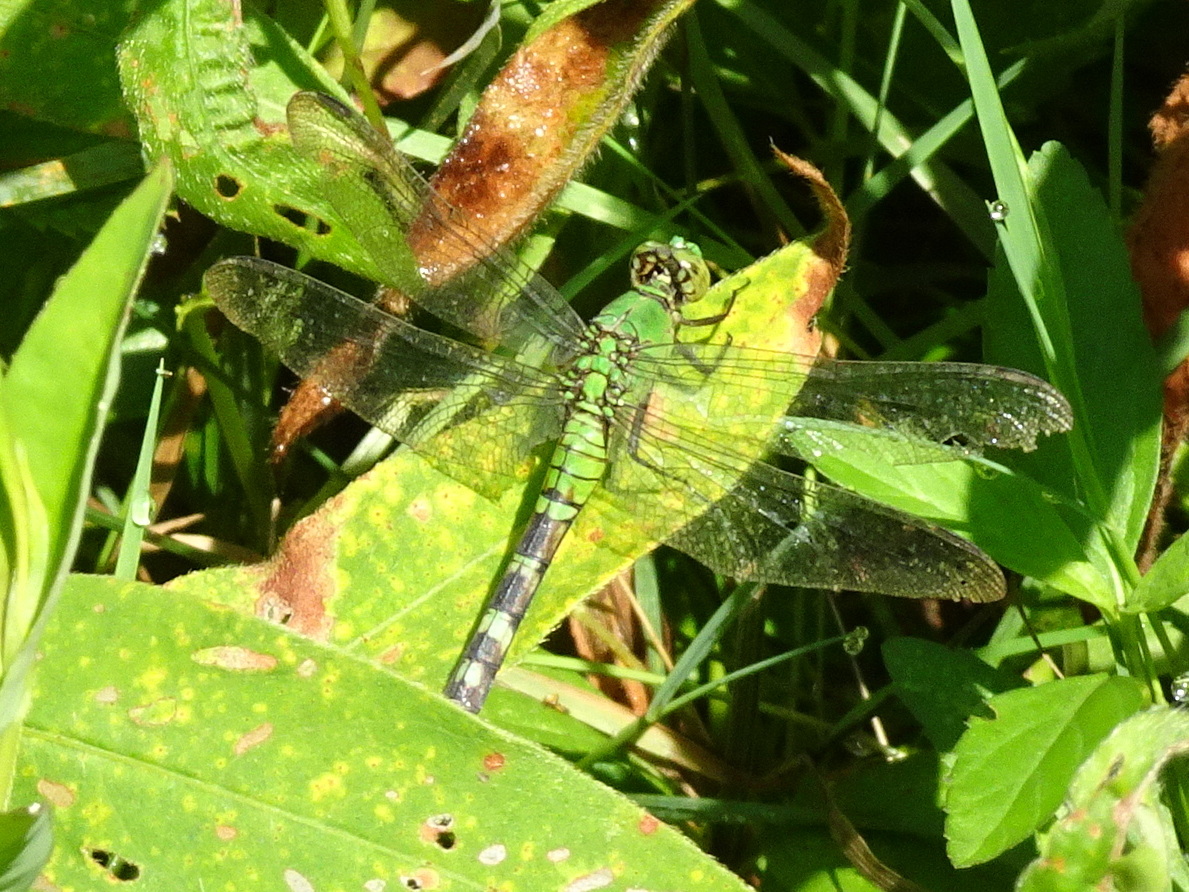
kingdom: Animalia
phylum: Arthropoda
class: Insecta
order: Odonata
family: Libellulidae
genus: Erythemis
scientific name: Erythemis simplicicollis
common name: Eastern pondhawk
